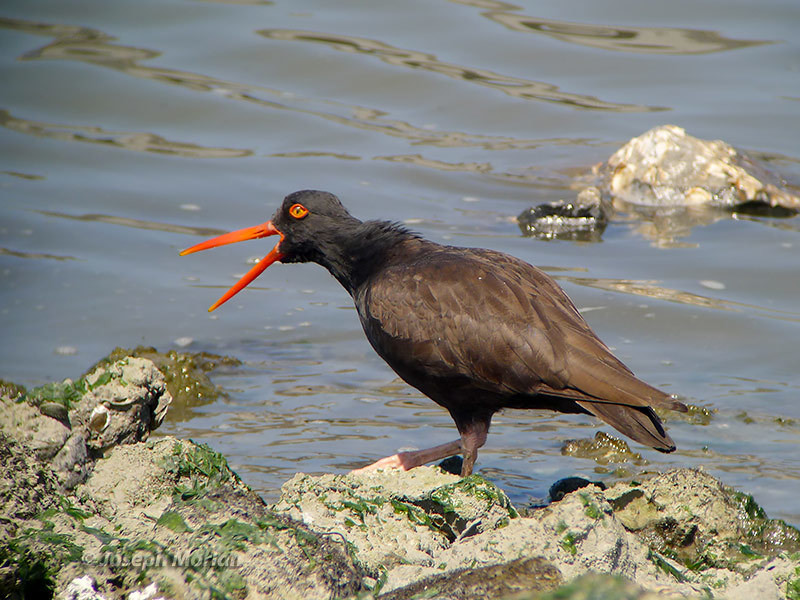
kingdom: Animalia
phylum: Chordata
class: Aves
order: Charadriiformes
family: Haematopodidae
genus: Haematopus
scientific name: Haematopus bachmani
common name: Black oystercatcher
